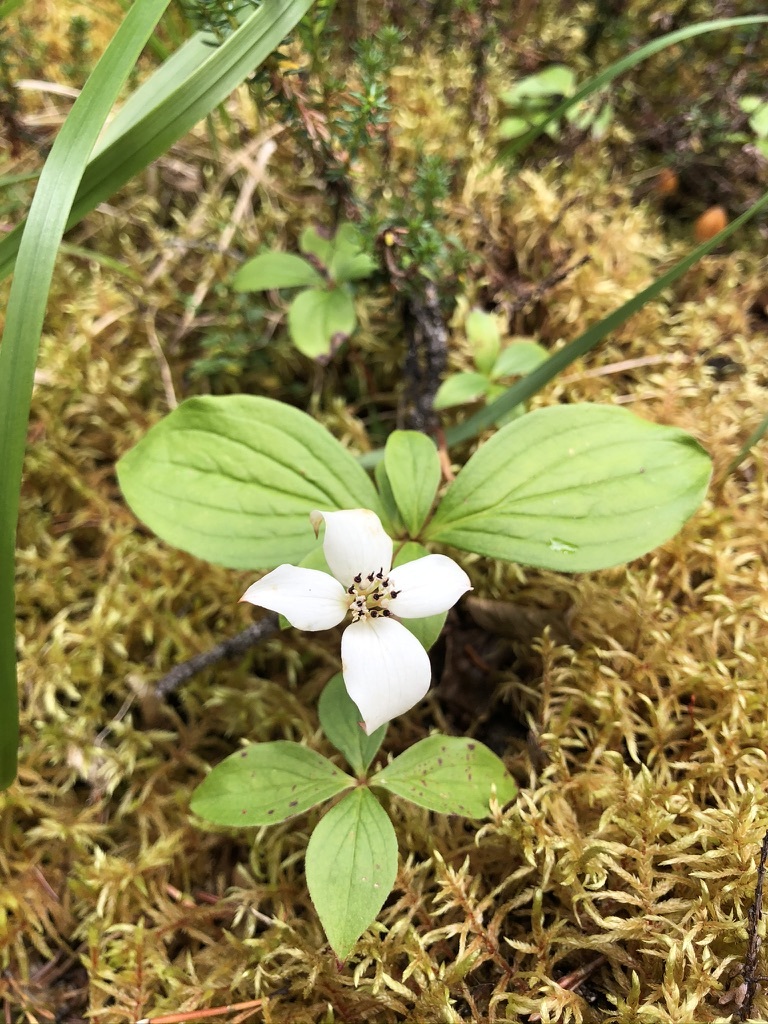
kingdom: Plantae
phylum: Tracheophyta
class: Magnoliopsida
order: Cornales
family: Cornaceae
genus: Cornus
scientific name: Cornus canadensis
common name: Creeping dogwood
